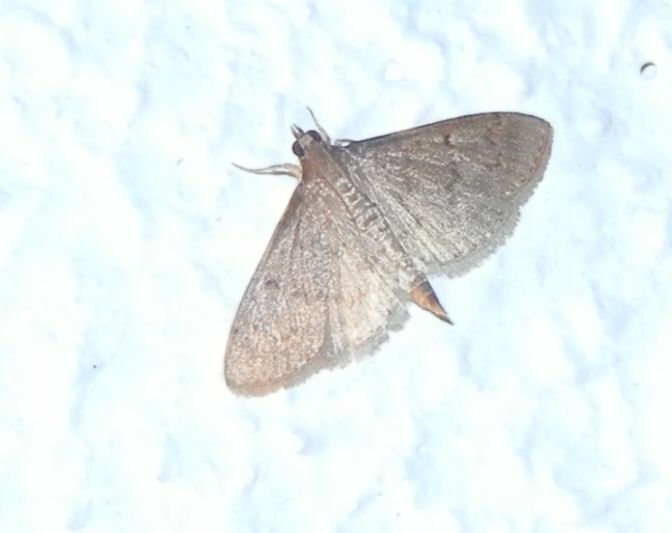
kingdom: Animalia
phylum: Arthropoda
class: Insecta
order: Lepidoptera
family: Crambidae
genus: Herpetogramma
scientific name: Herpetogramma licarsisalis
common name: Grass webworm
